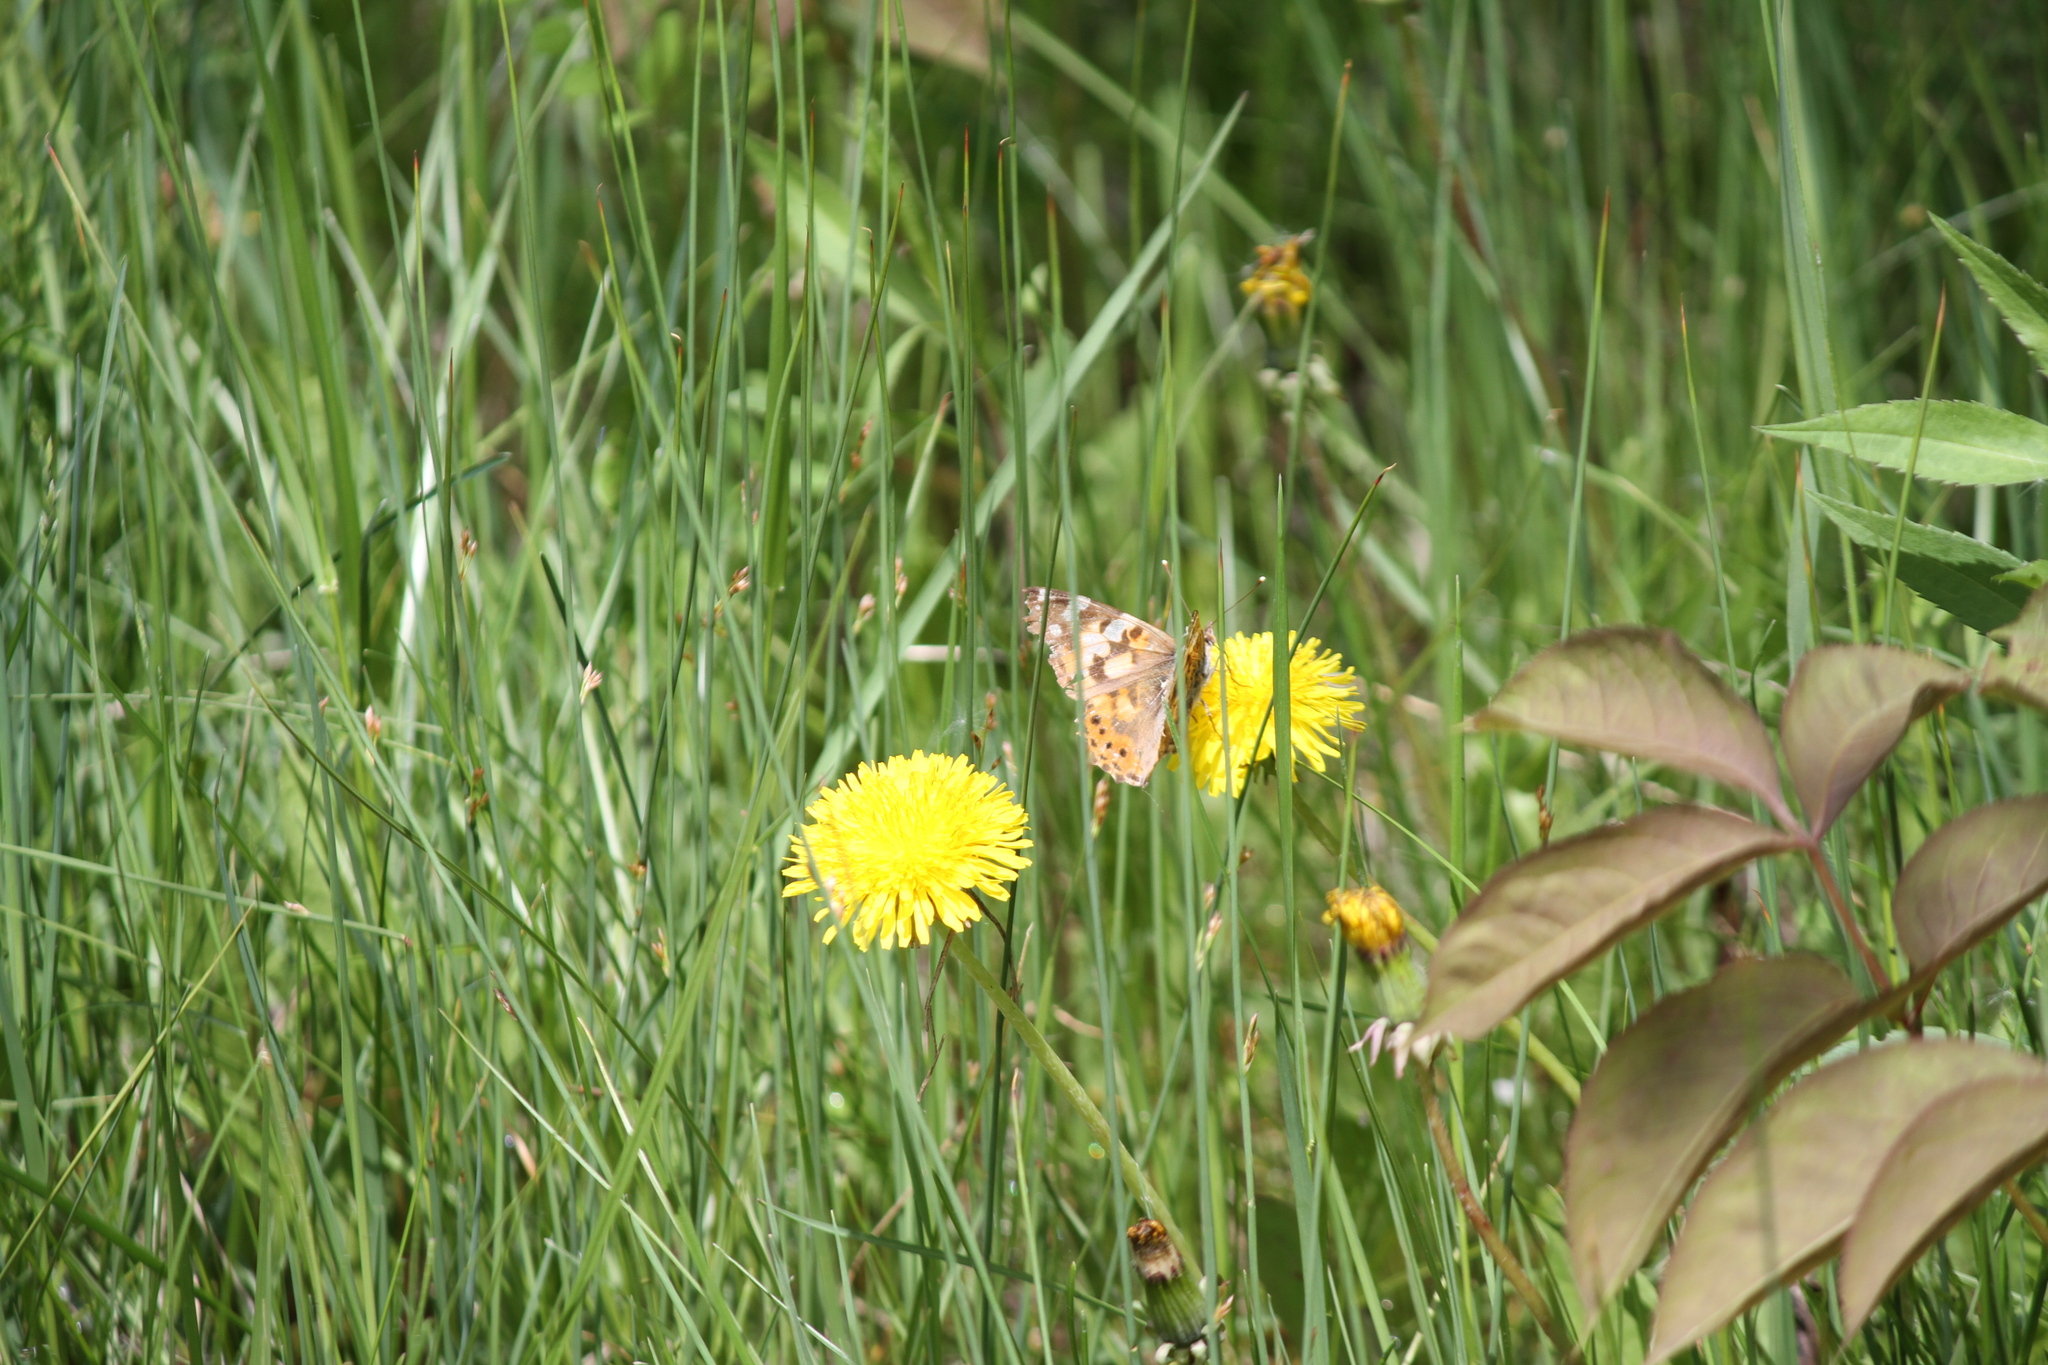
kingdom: Animalia
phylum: Arthropoda
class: Insecta
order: Lepidoptera
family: Nymphalidae
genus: Vanessa
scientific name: Vanessa cardui
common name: Painted lady
